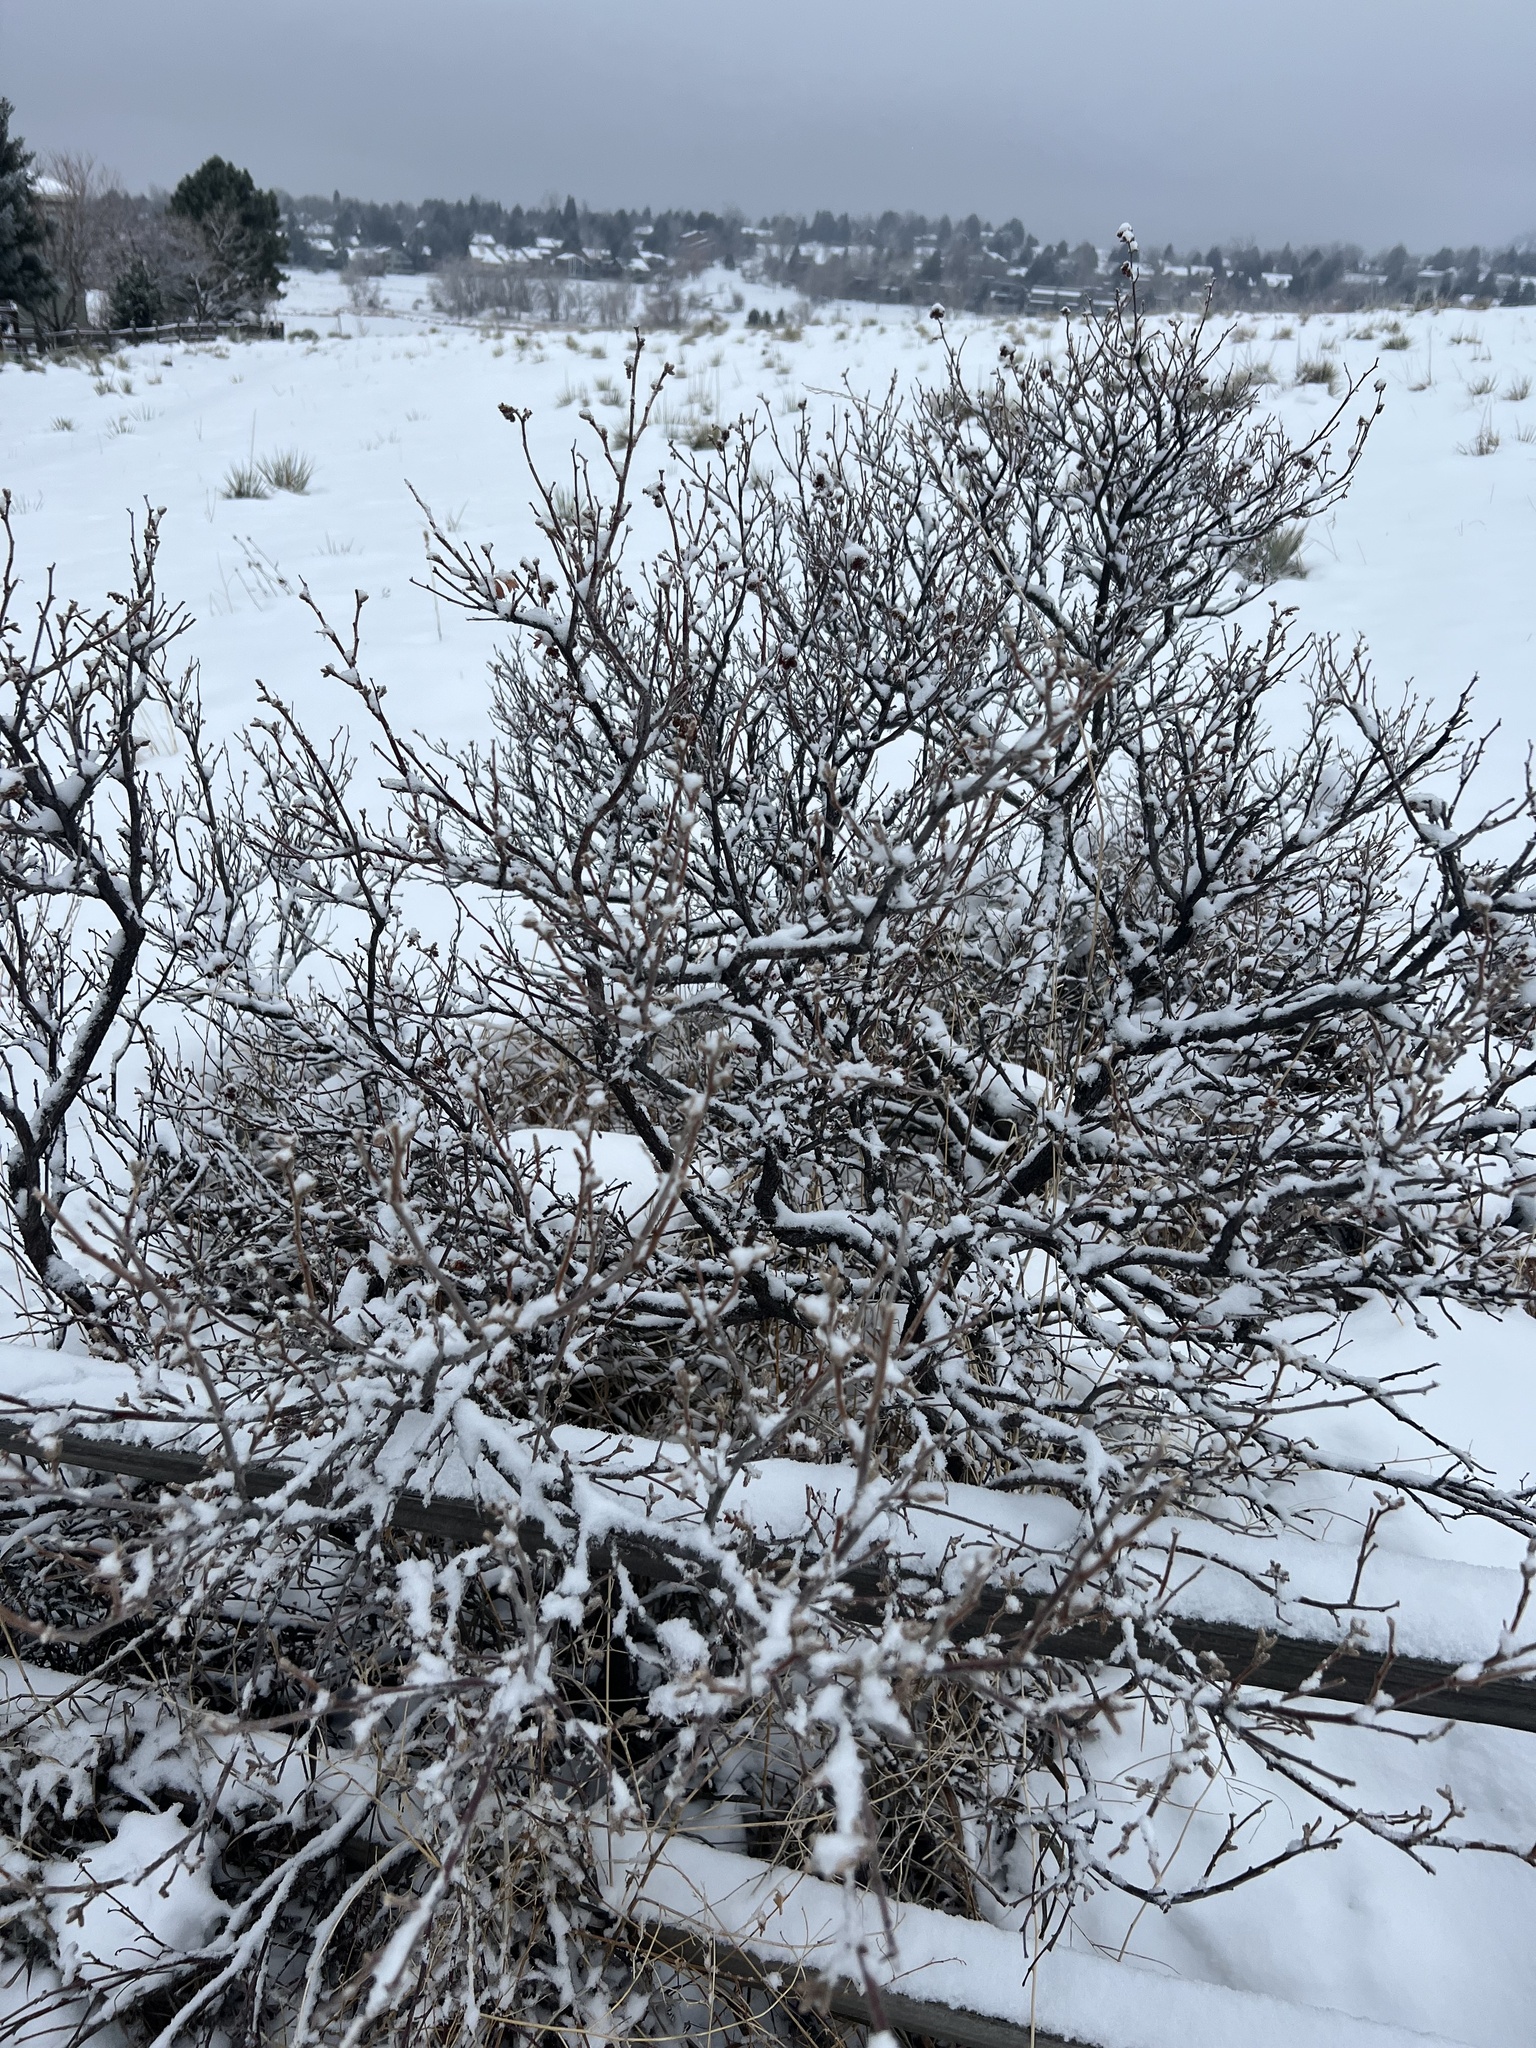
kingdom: Plantae
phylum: Tracheophyta
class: Magnoliopsida
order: Sapindales
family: Anacardiaceae
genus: Rhus
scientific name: Rhus trilobata
